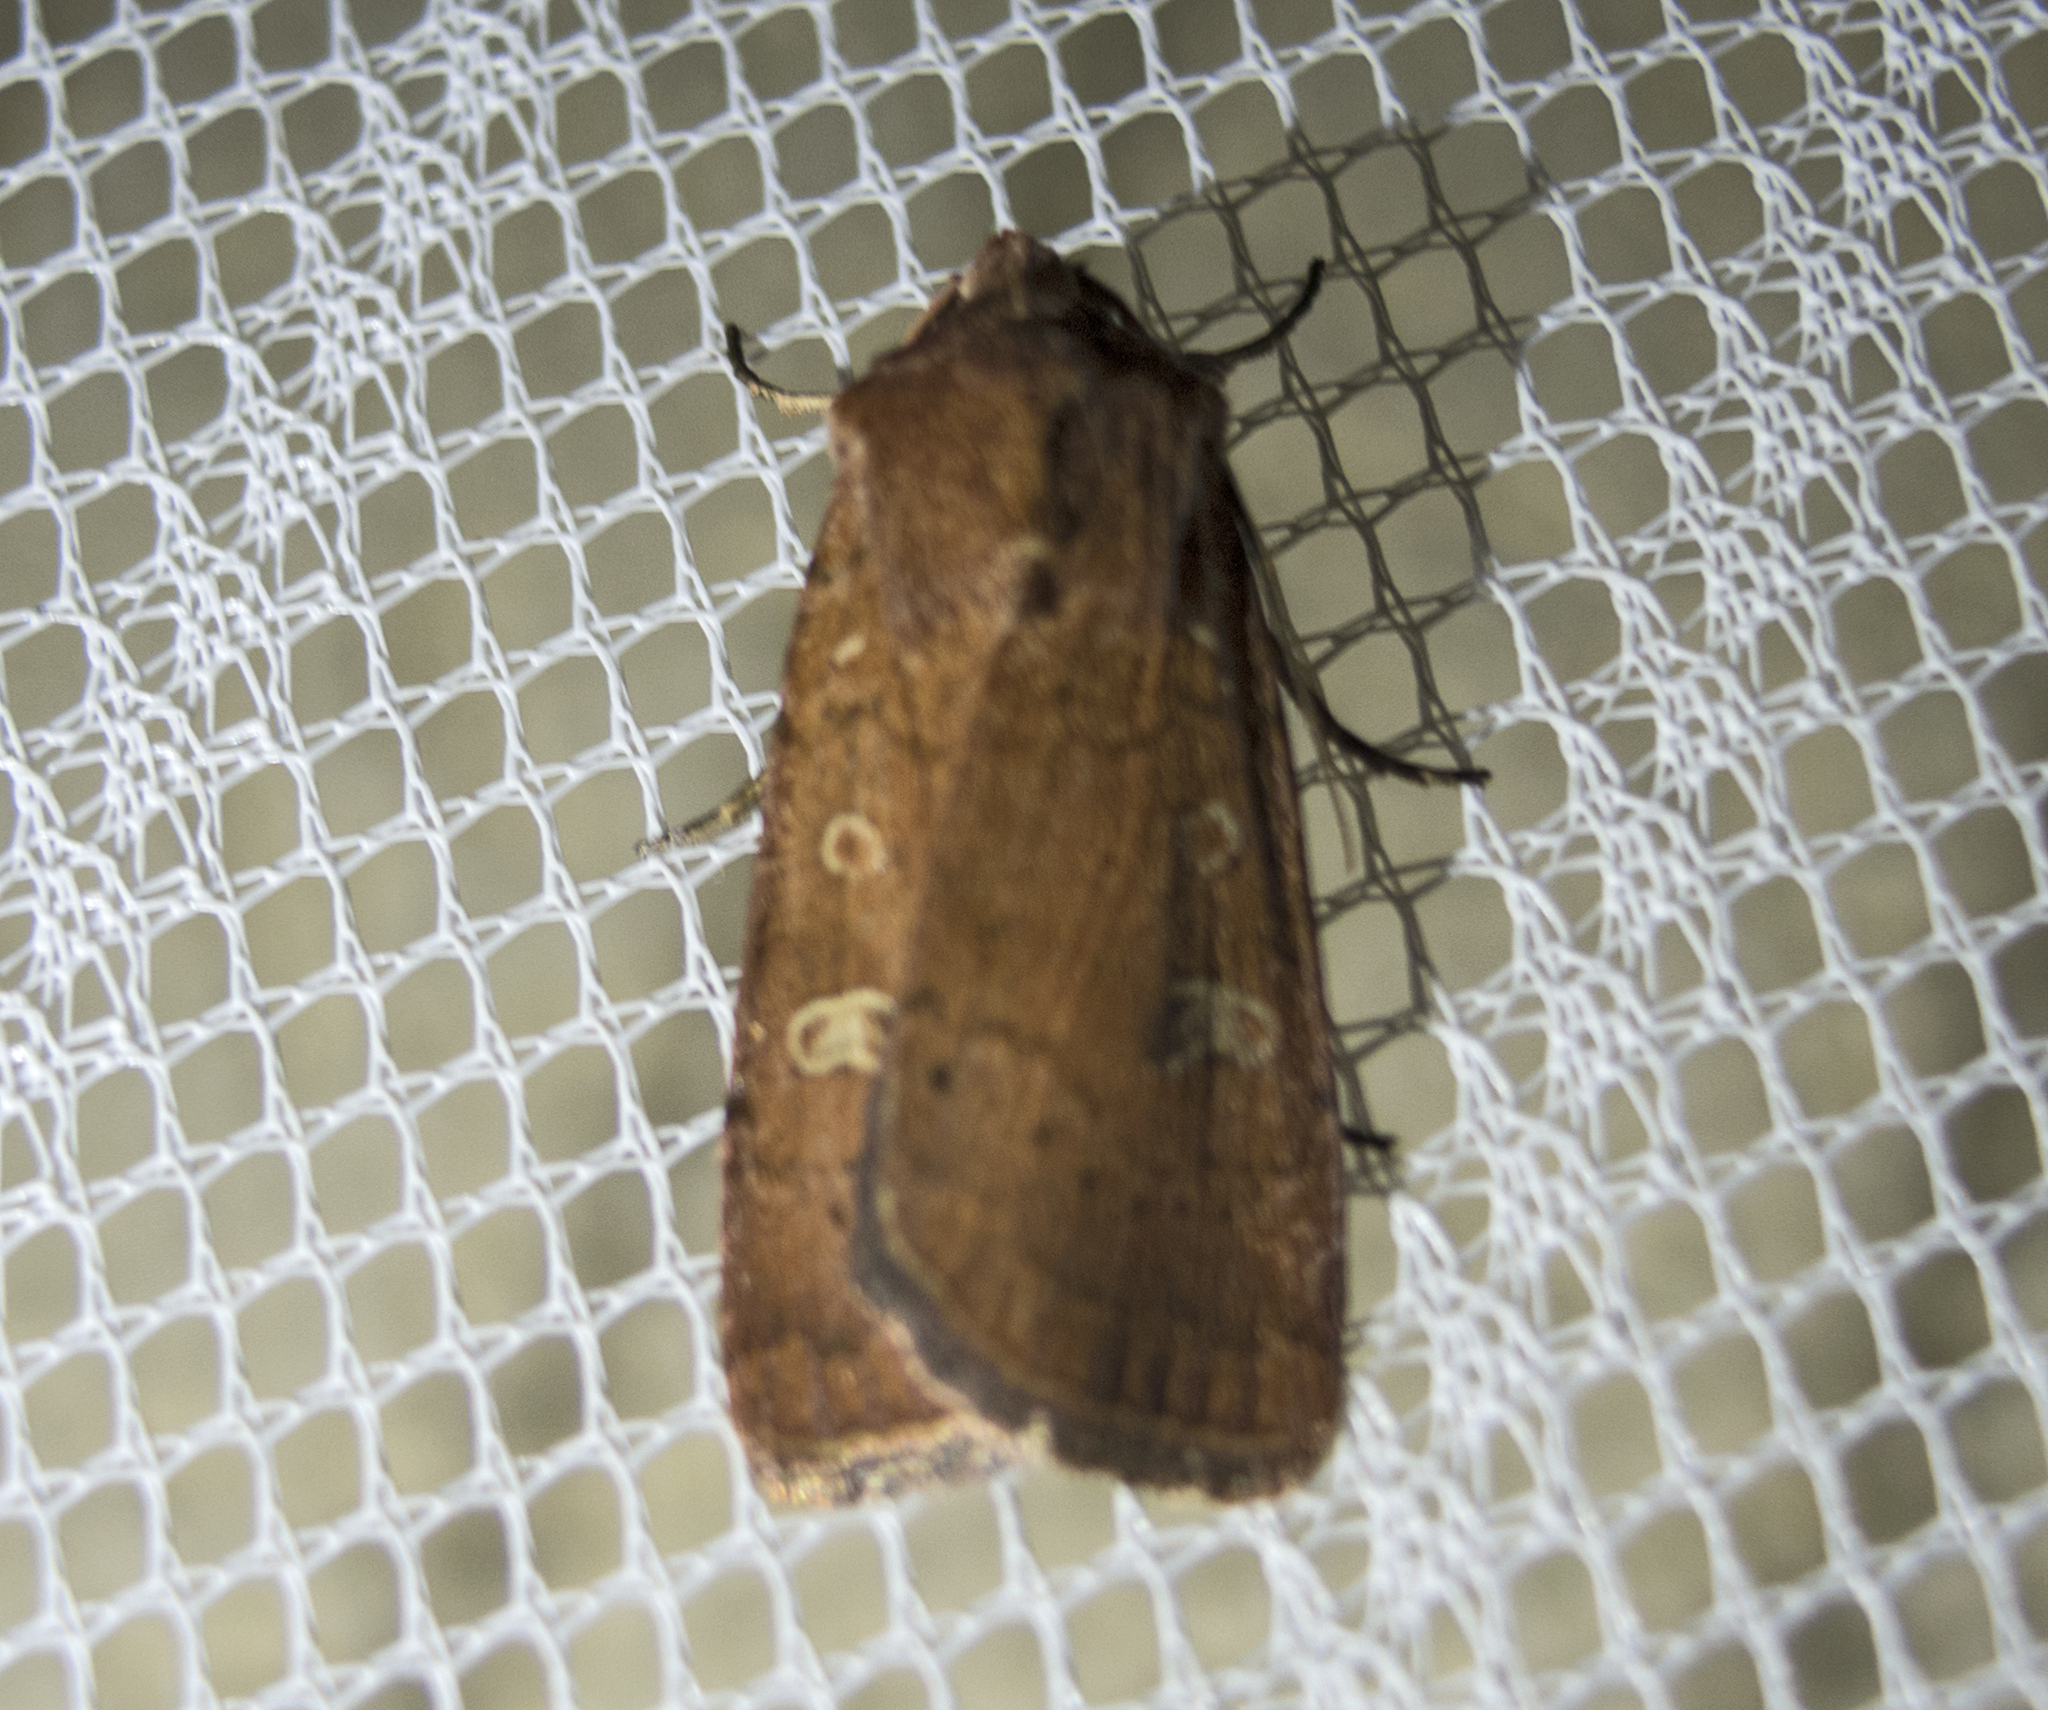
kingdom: Animalia
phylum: Arthropoda
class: Insecta
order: Lepidoptera
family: Noctuidae
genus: Xestia
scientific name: Xestia xanthographa
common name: Square-spot rustic
